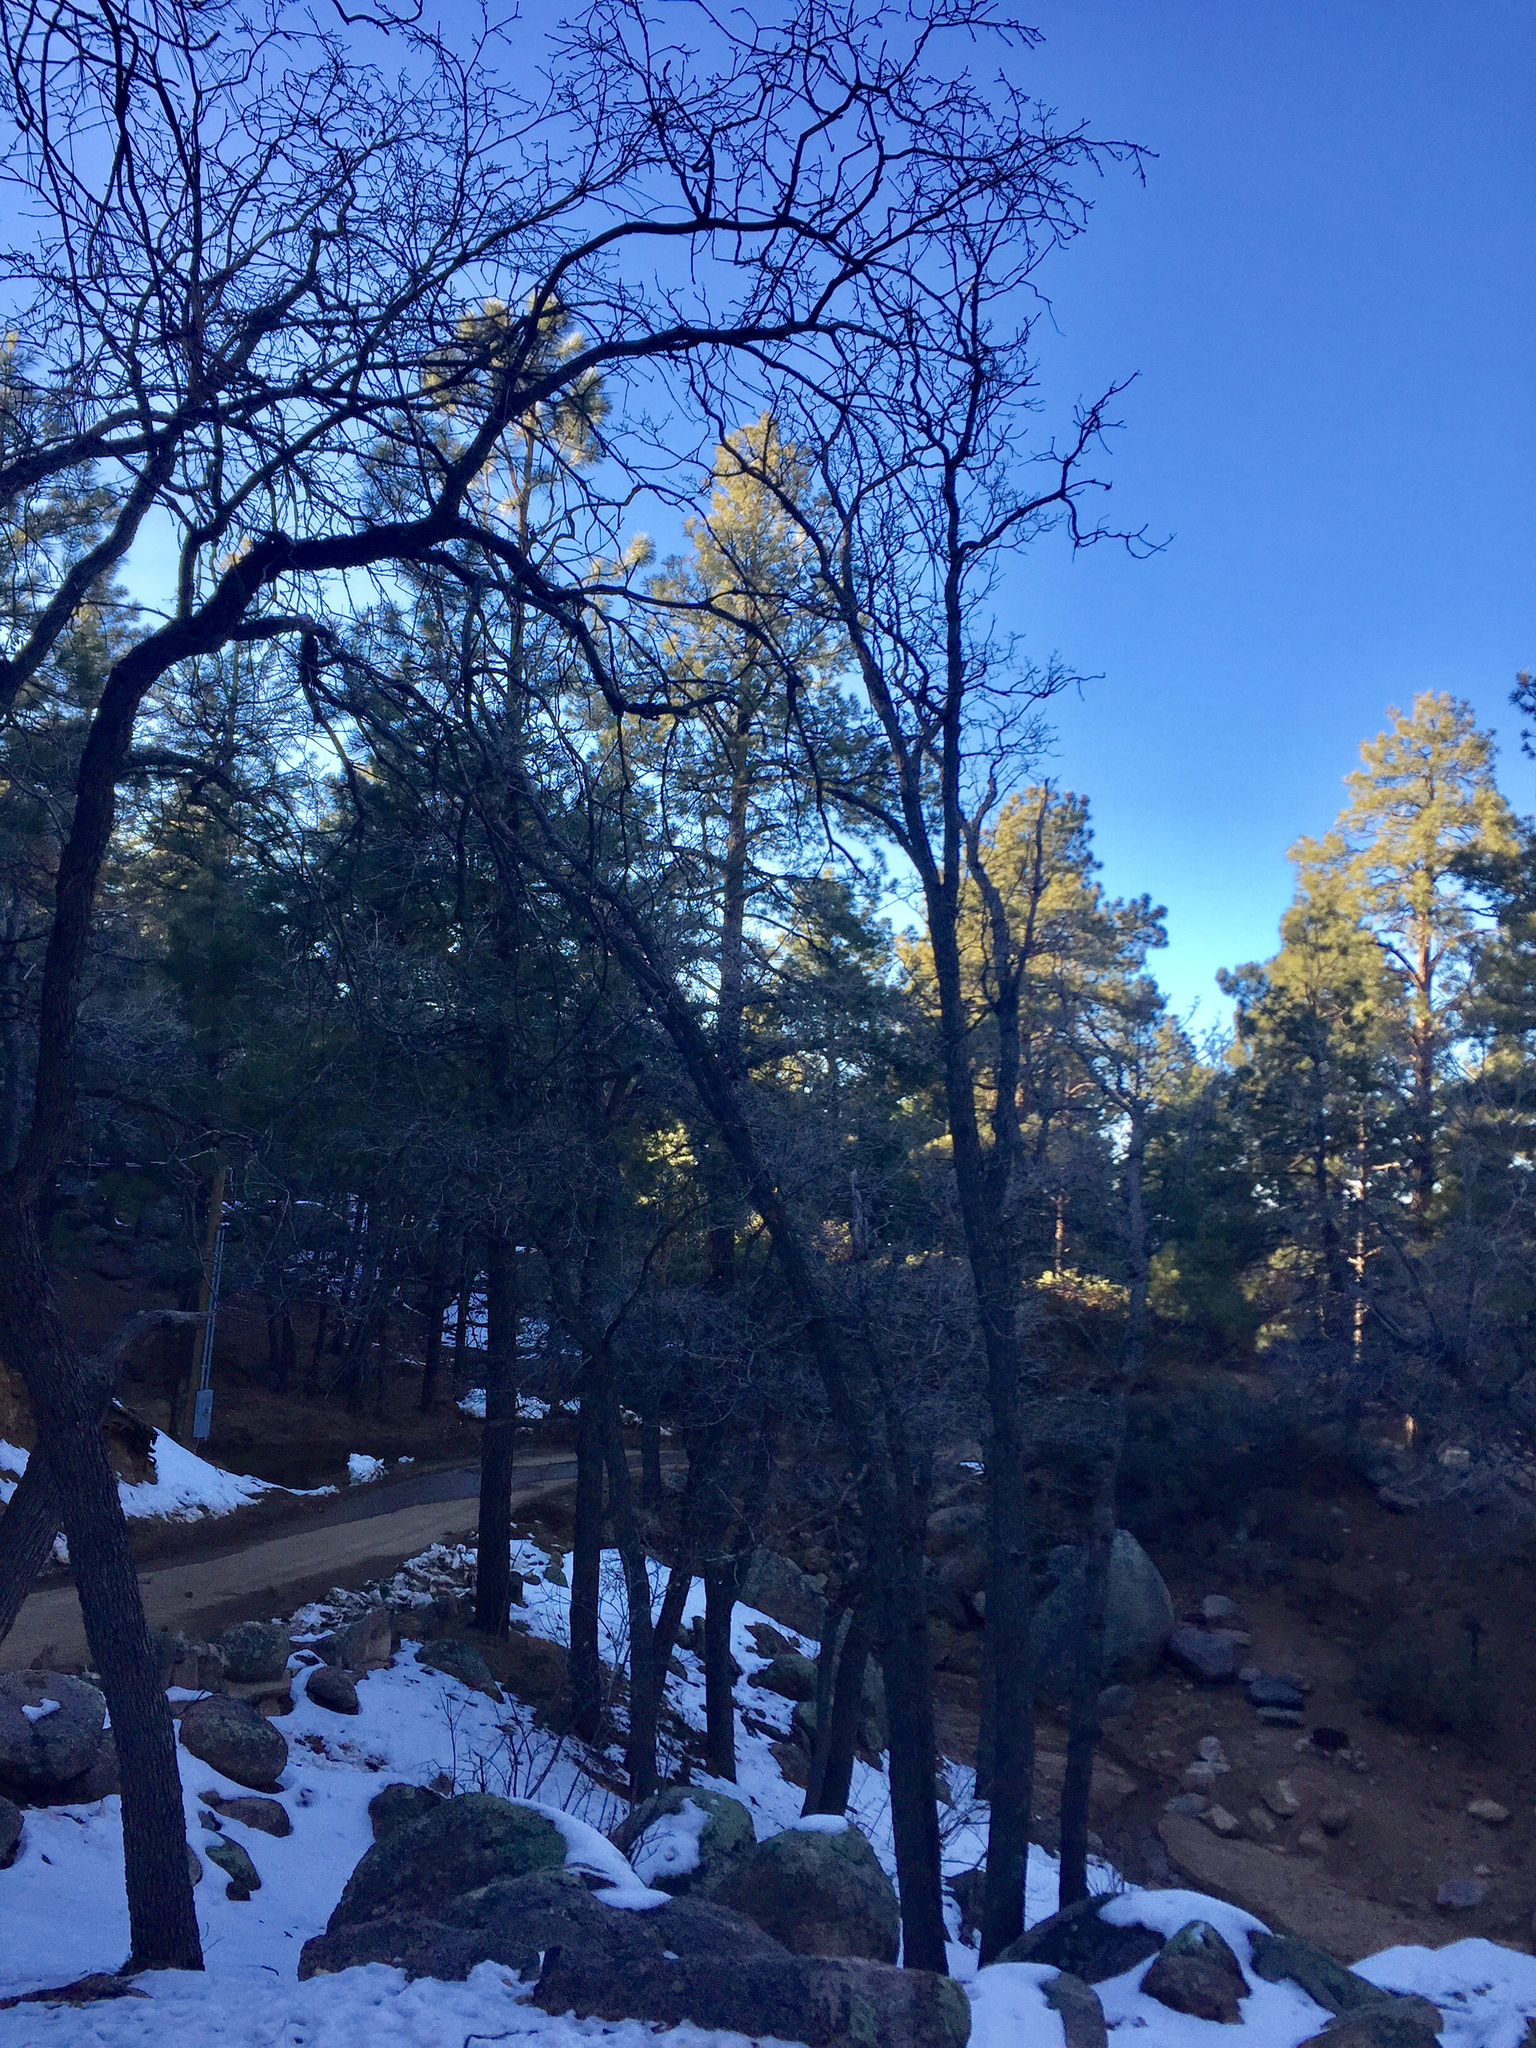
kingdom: Plantae
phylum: Tracheophyta
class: Magnoliopsida
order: Fagales
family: Fagaceae
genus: Quercus
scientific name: Quercus gambelii
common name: Gambel oak
